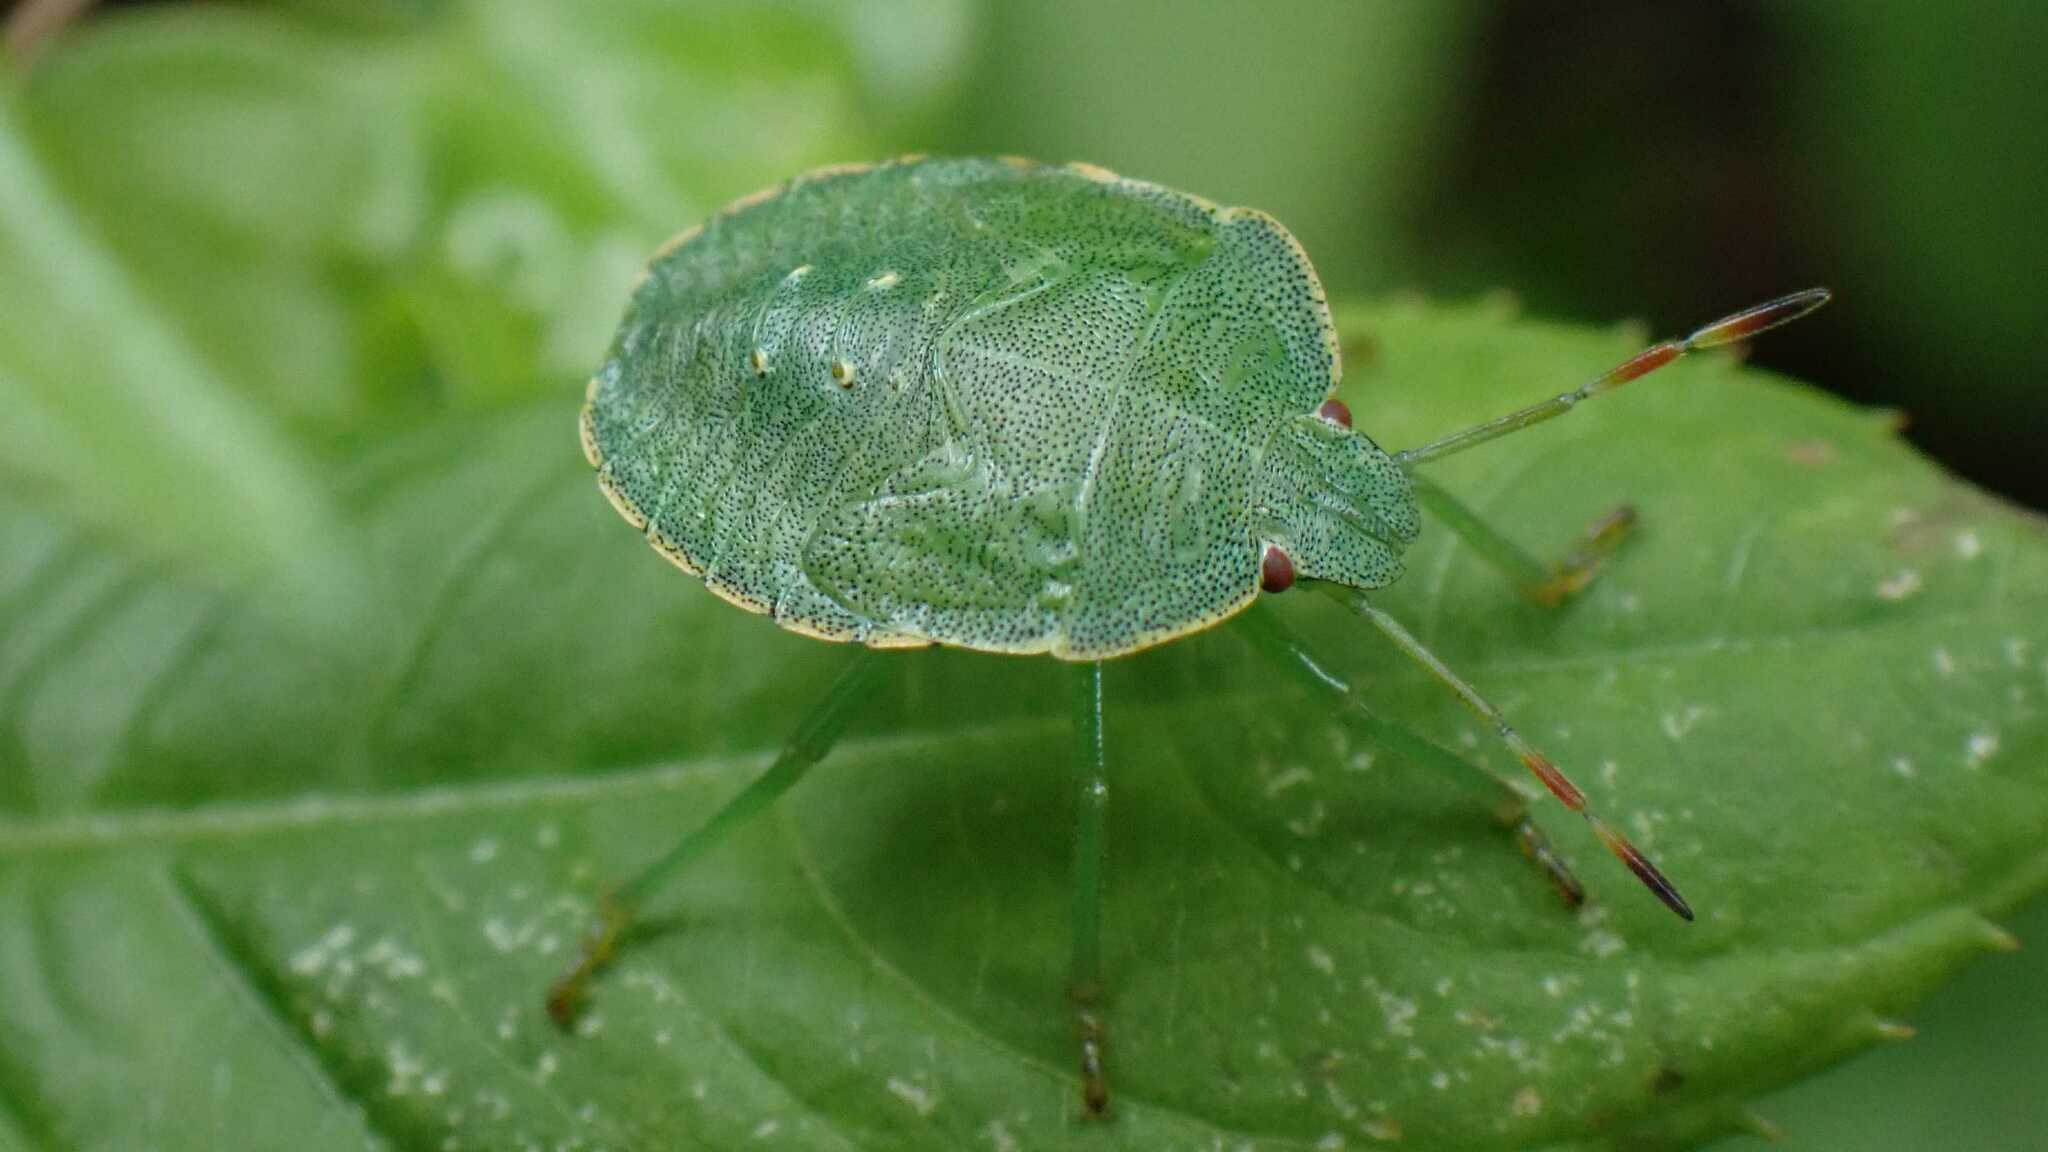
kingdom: Animalia
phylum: Arthropoda
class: Insecta
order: Hemiptera
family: Pentatomidae
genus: Palomena
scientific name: Palomena prasina
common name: Green shieldbug
